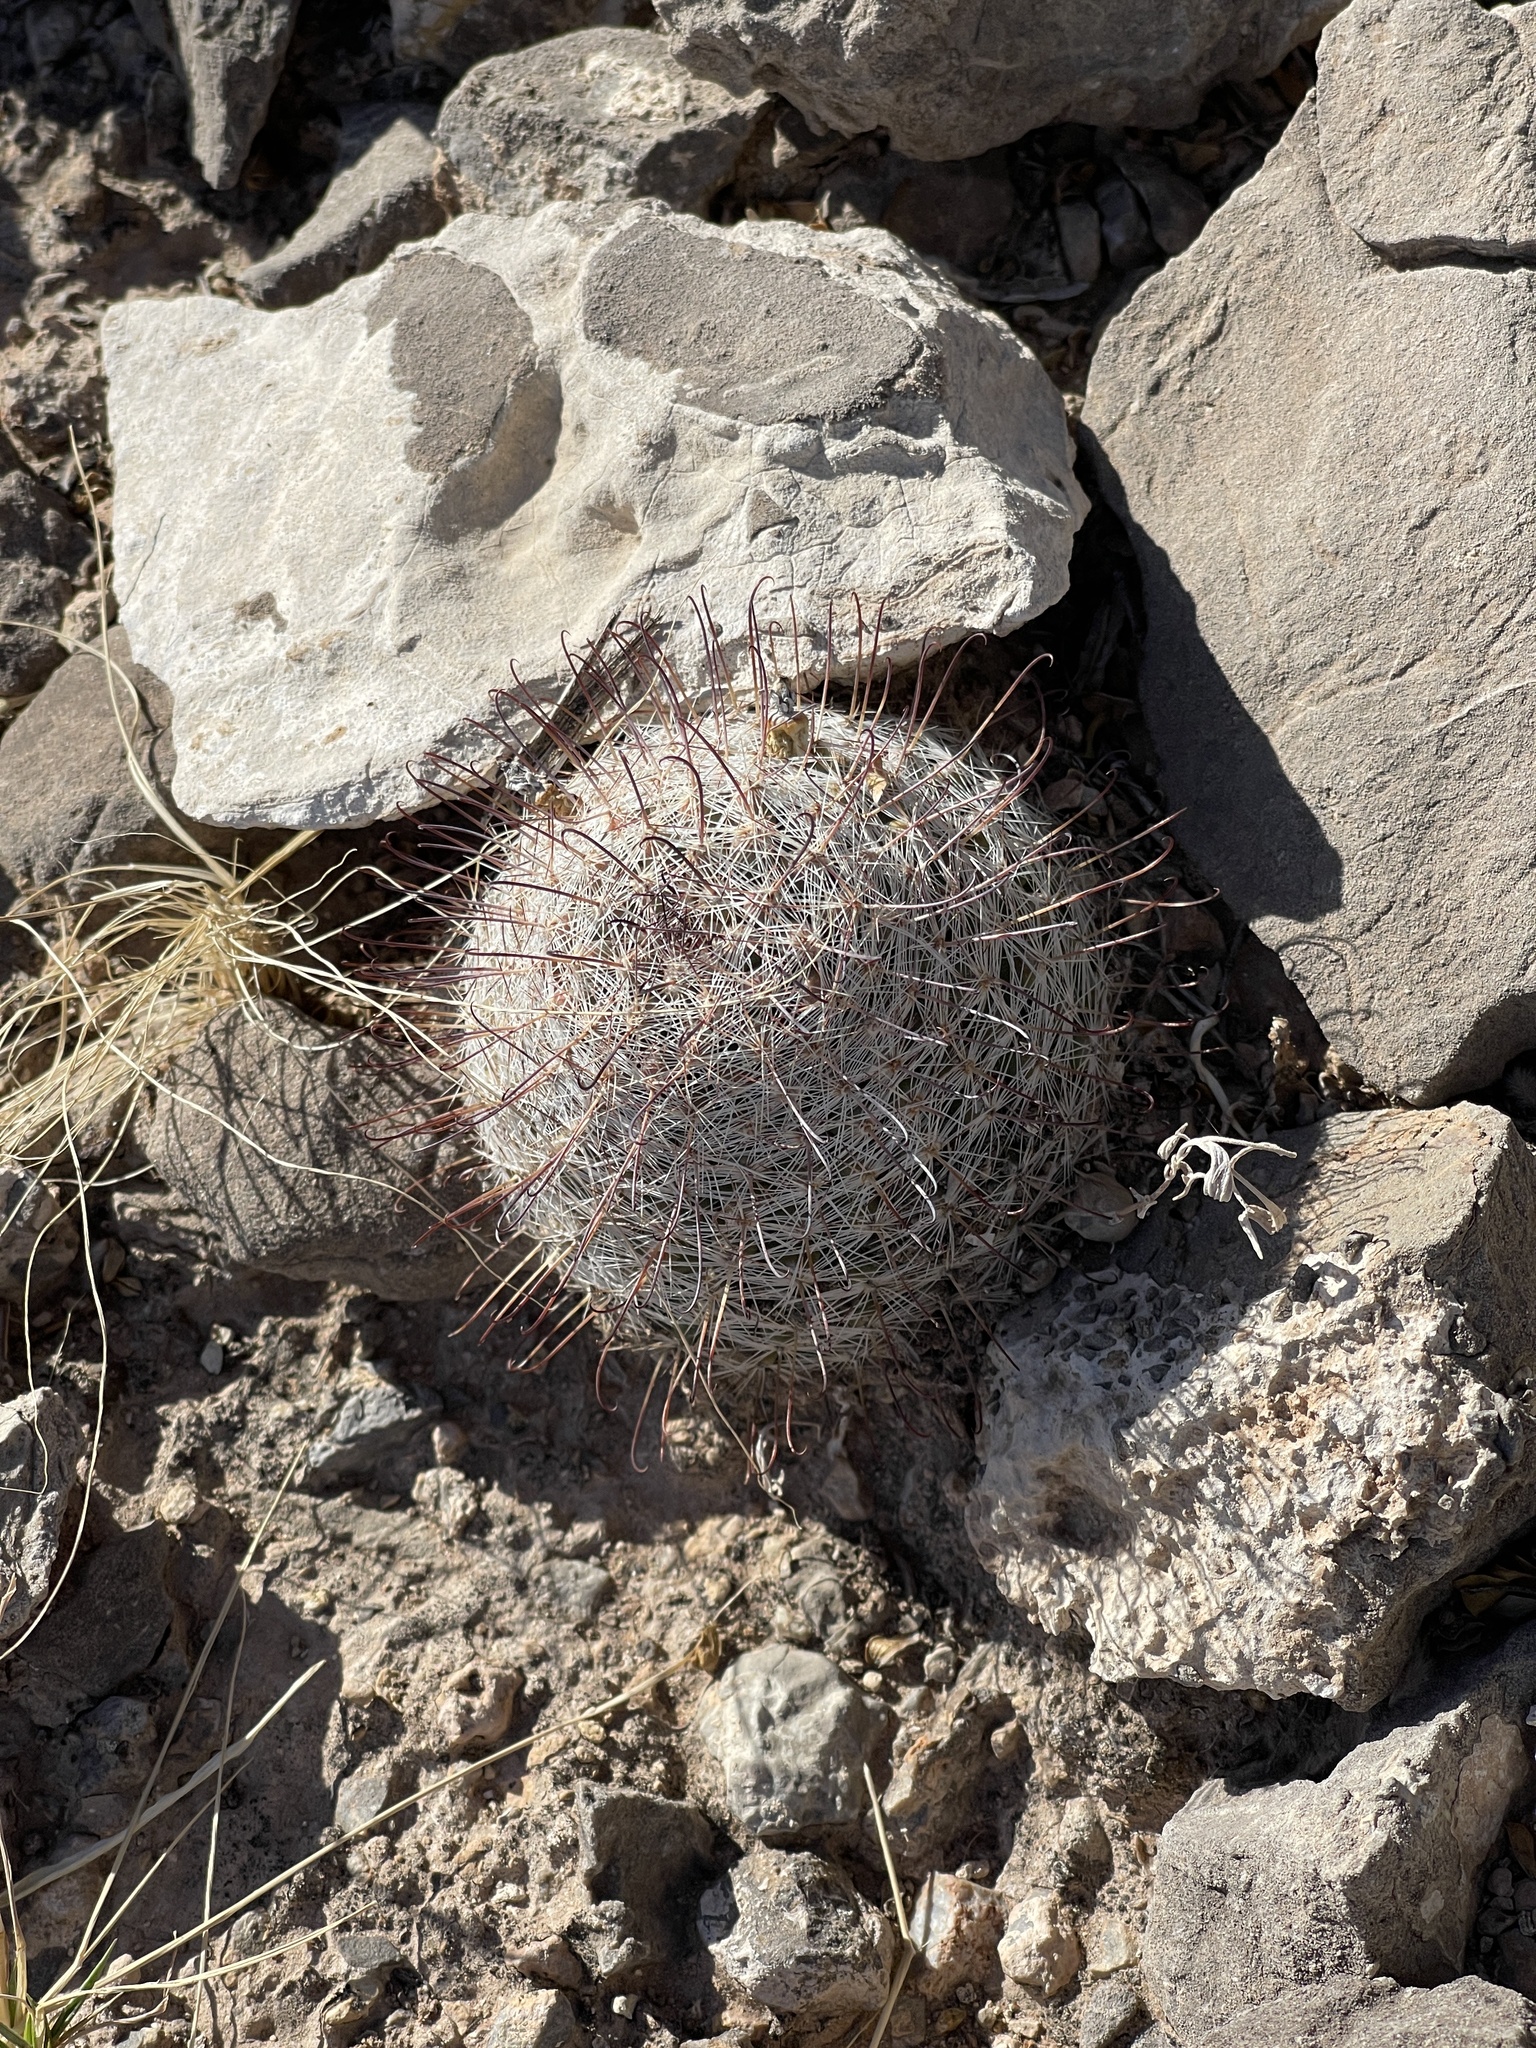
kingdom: Plantae
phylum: Tracheophyta
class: Magnoliopsida
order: Caryophyllales
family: Cactaceae
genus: Cochemiea
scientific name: Cochemiea grahamii
